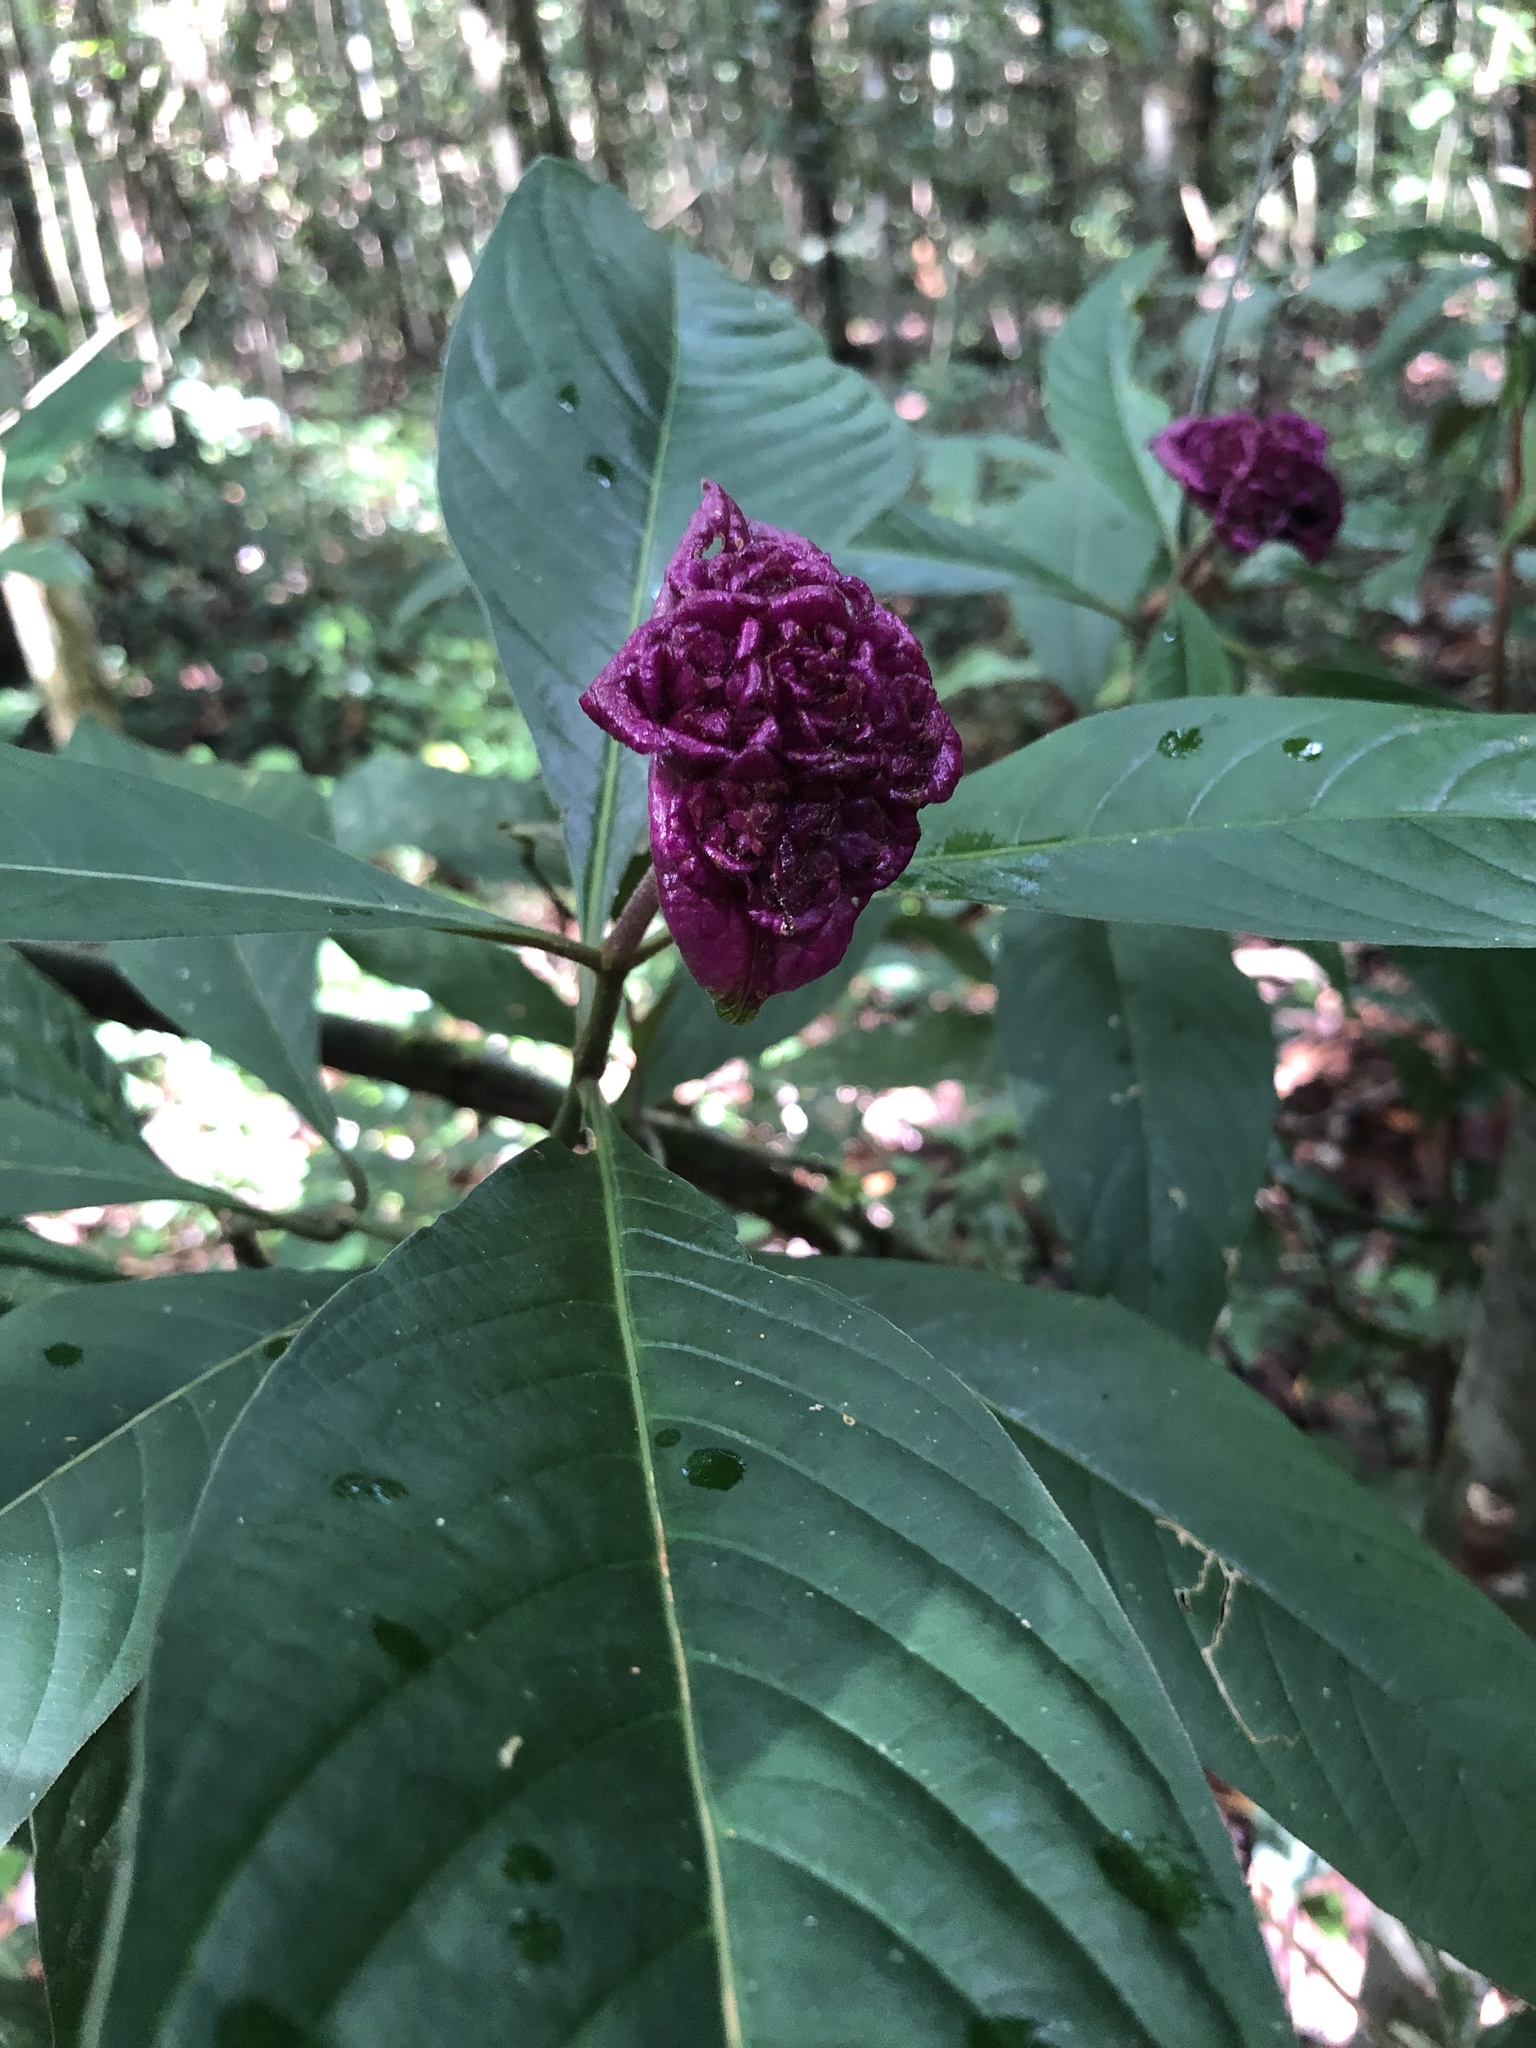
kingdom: Plantae
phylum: Tracheophyta
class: Magnoliopsida
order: Gentianales
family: Rubiaceae
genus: Palicourea
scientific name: Palicourea colorata
